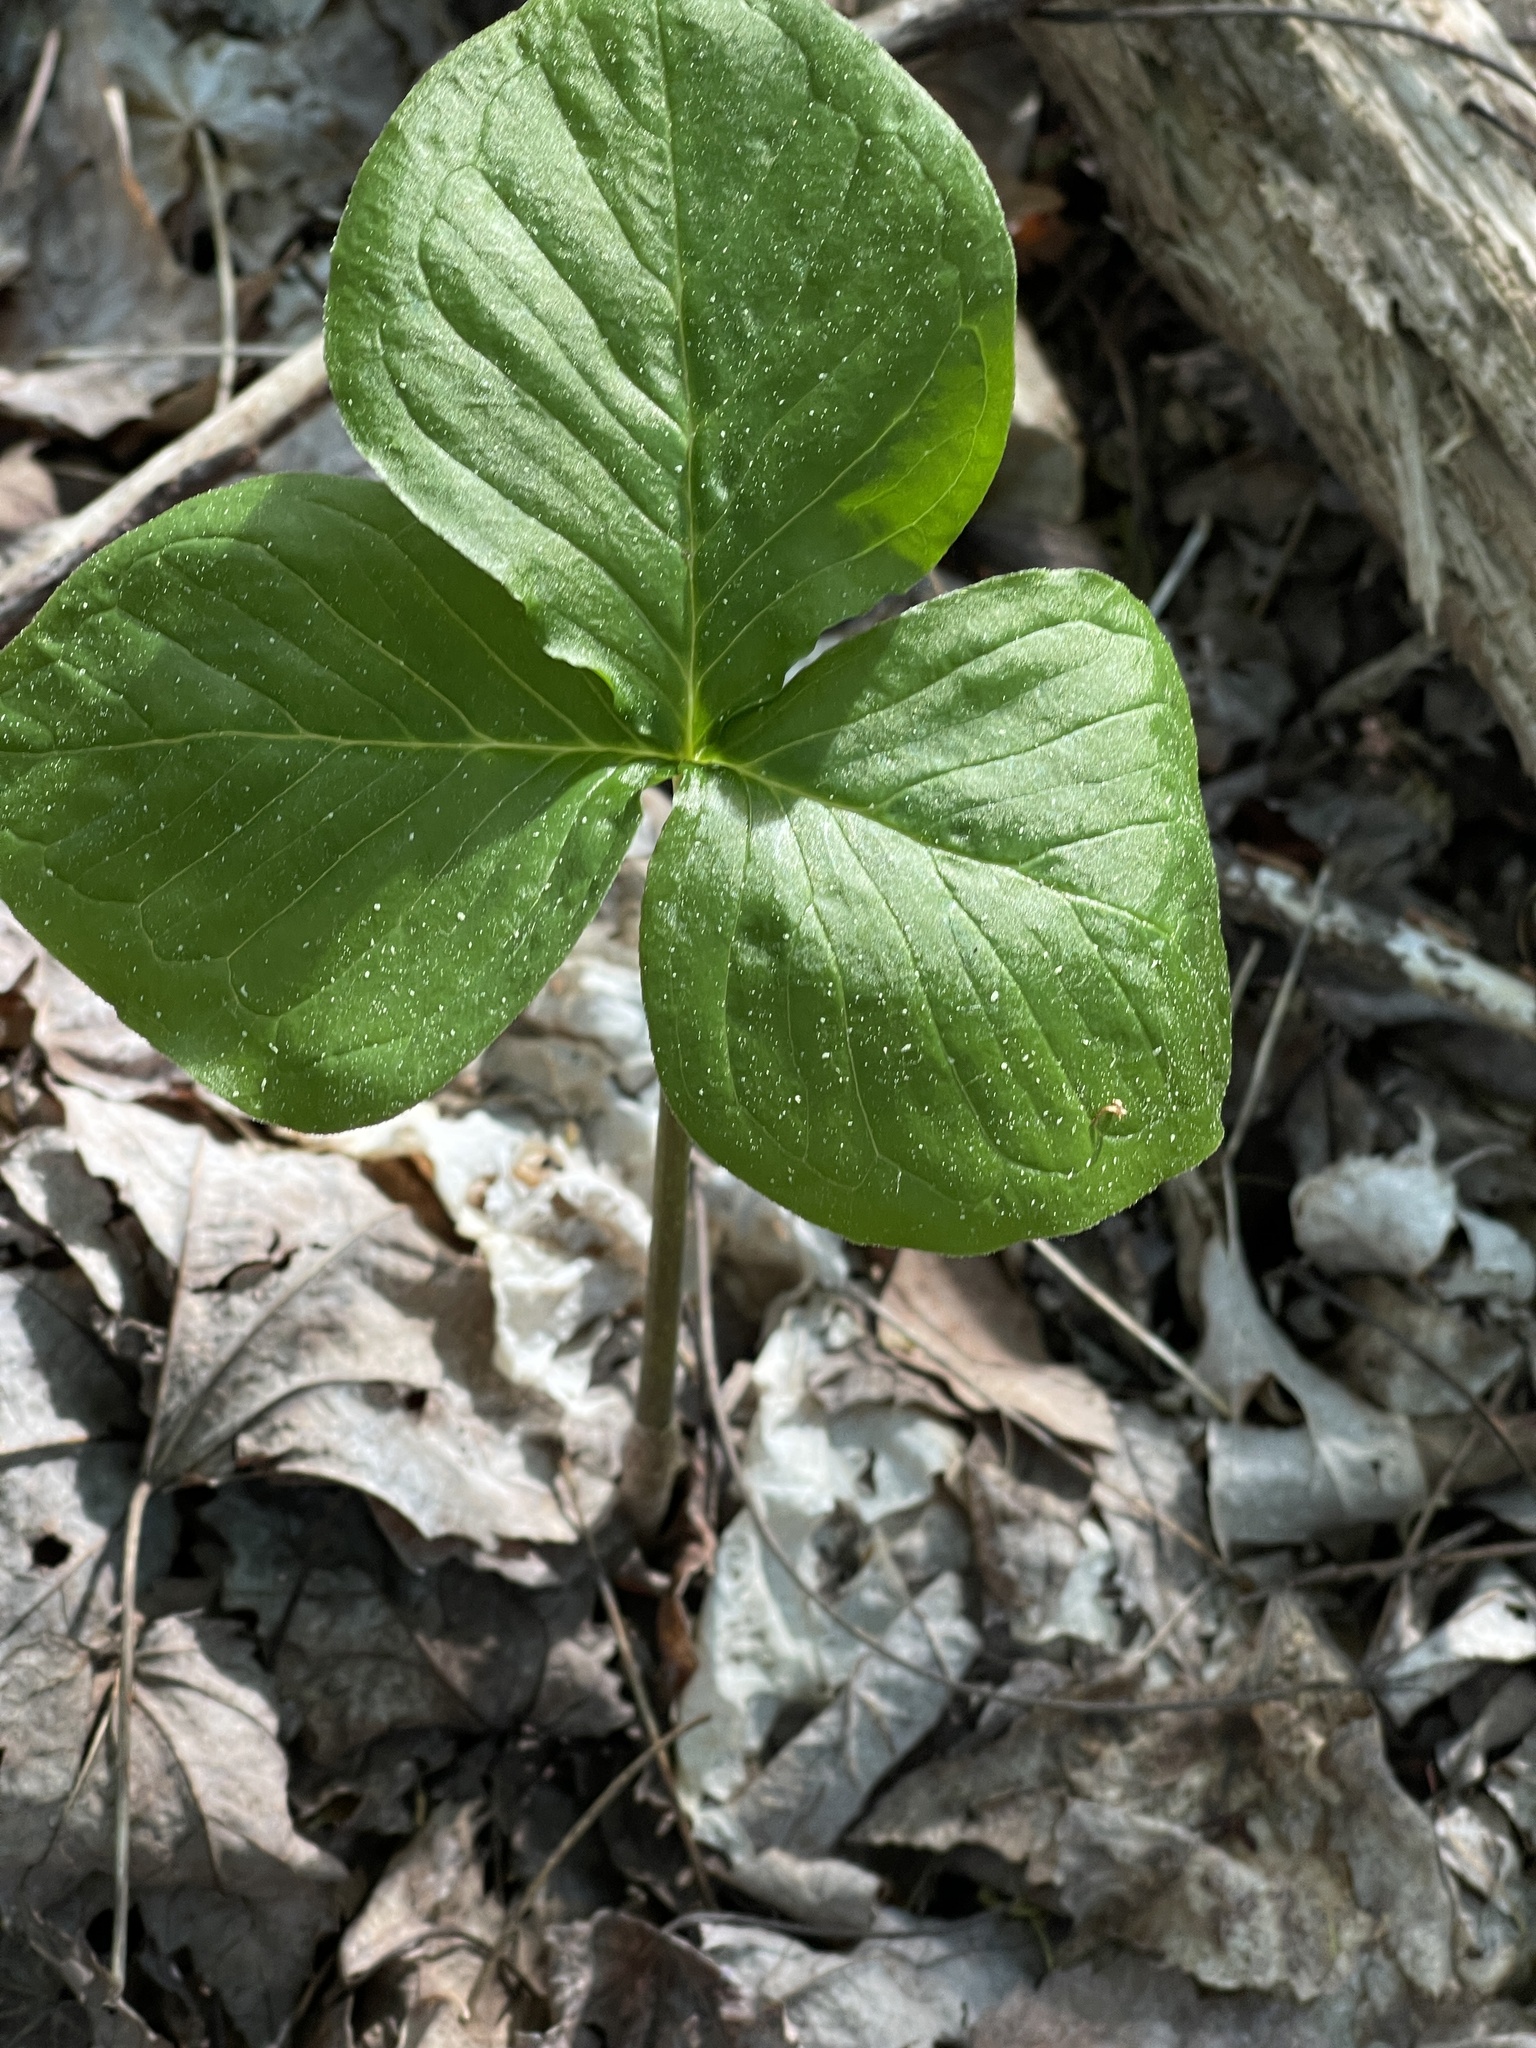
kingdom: Plantae
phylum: Tracheophyta
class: Liliopsida
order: Alismatales
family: Araceae
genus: Arisaema
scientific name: Arisaema triphyllum
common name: Jack-in-the-pulpit
